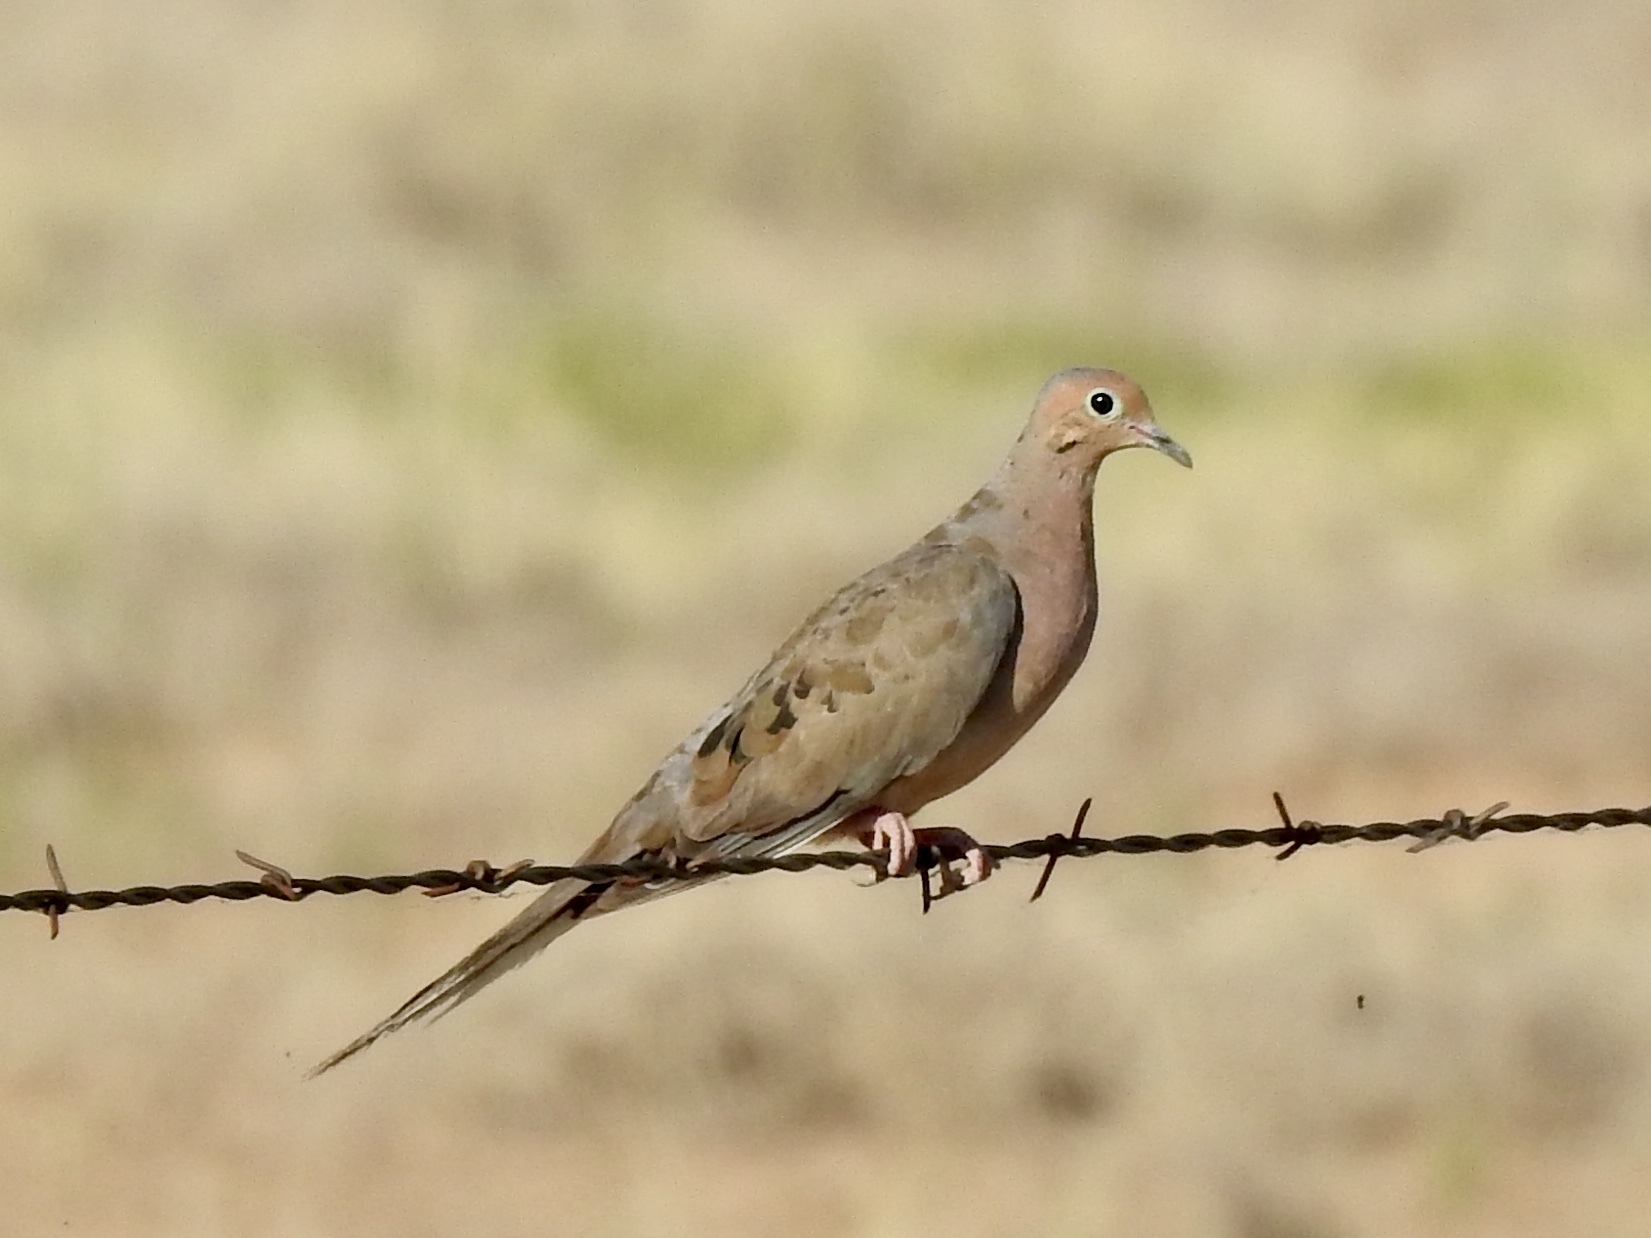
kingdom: Animalia
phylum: Chordata
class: Aves
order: Columbiformes
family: Columbidae
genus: Zenaida
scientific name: Zenaida macroura
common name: Mourning dove
